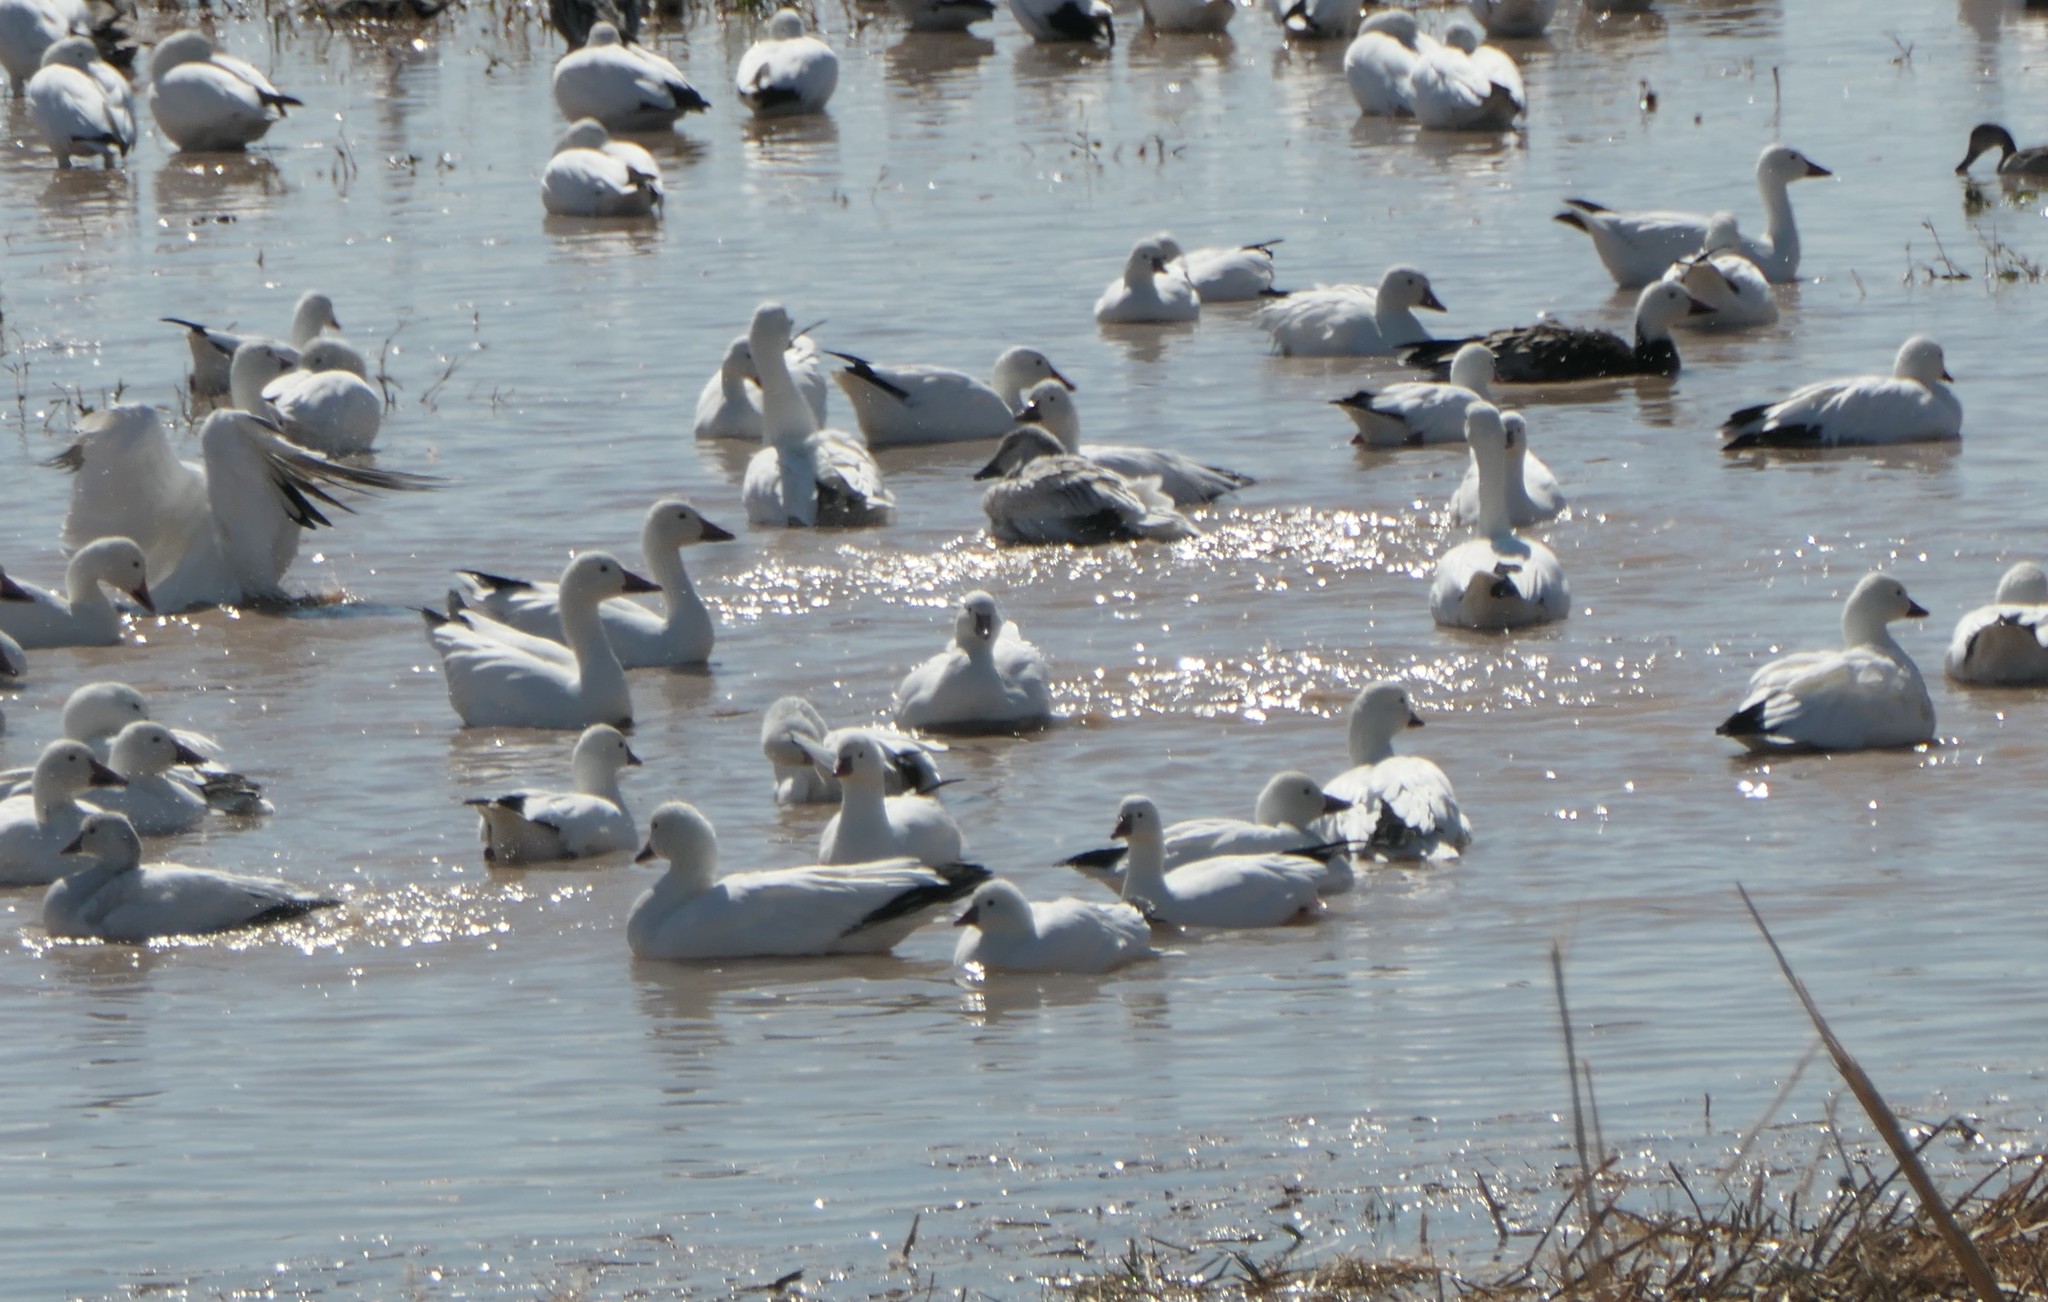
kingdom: Animalia
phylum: Chordata
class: Aves
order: Anseriformes
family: Anatidae
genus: Anser
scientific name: Anser rossii
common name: Ross's goose
